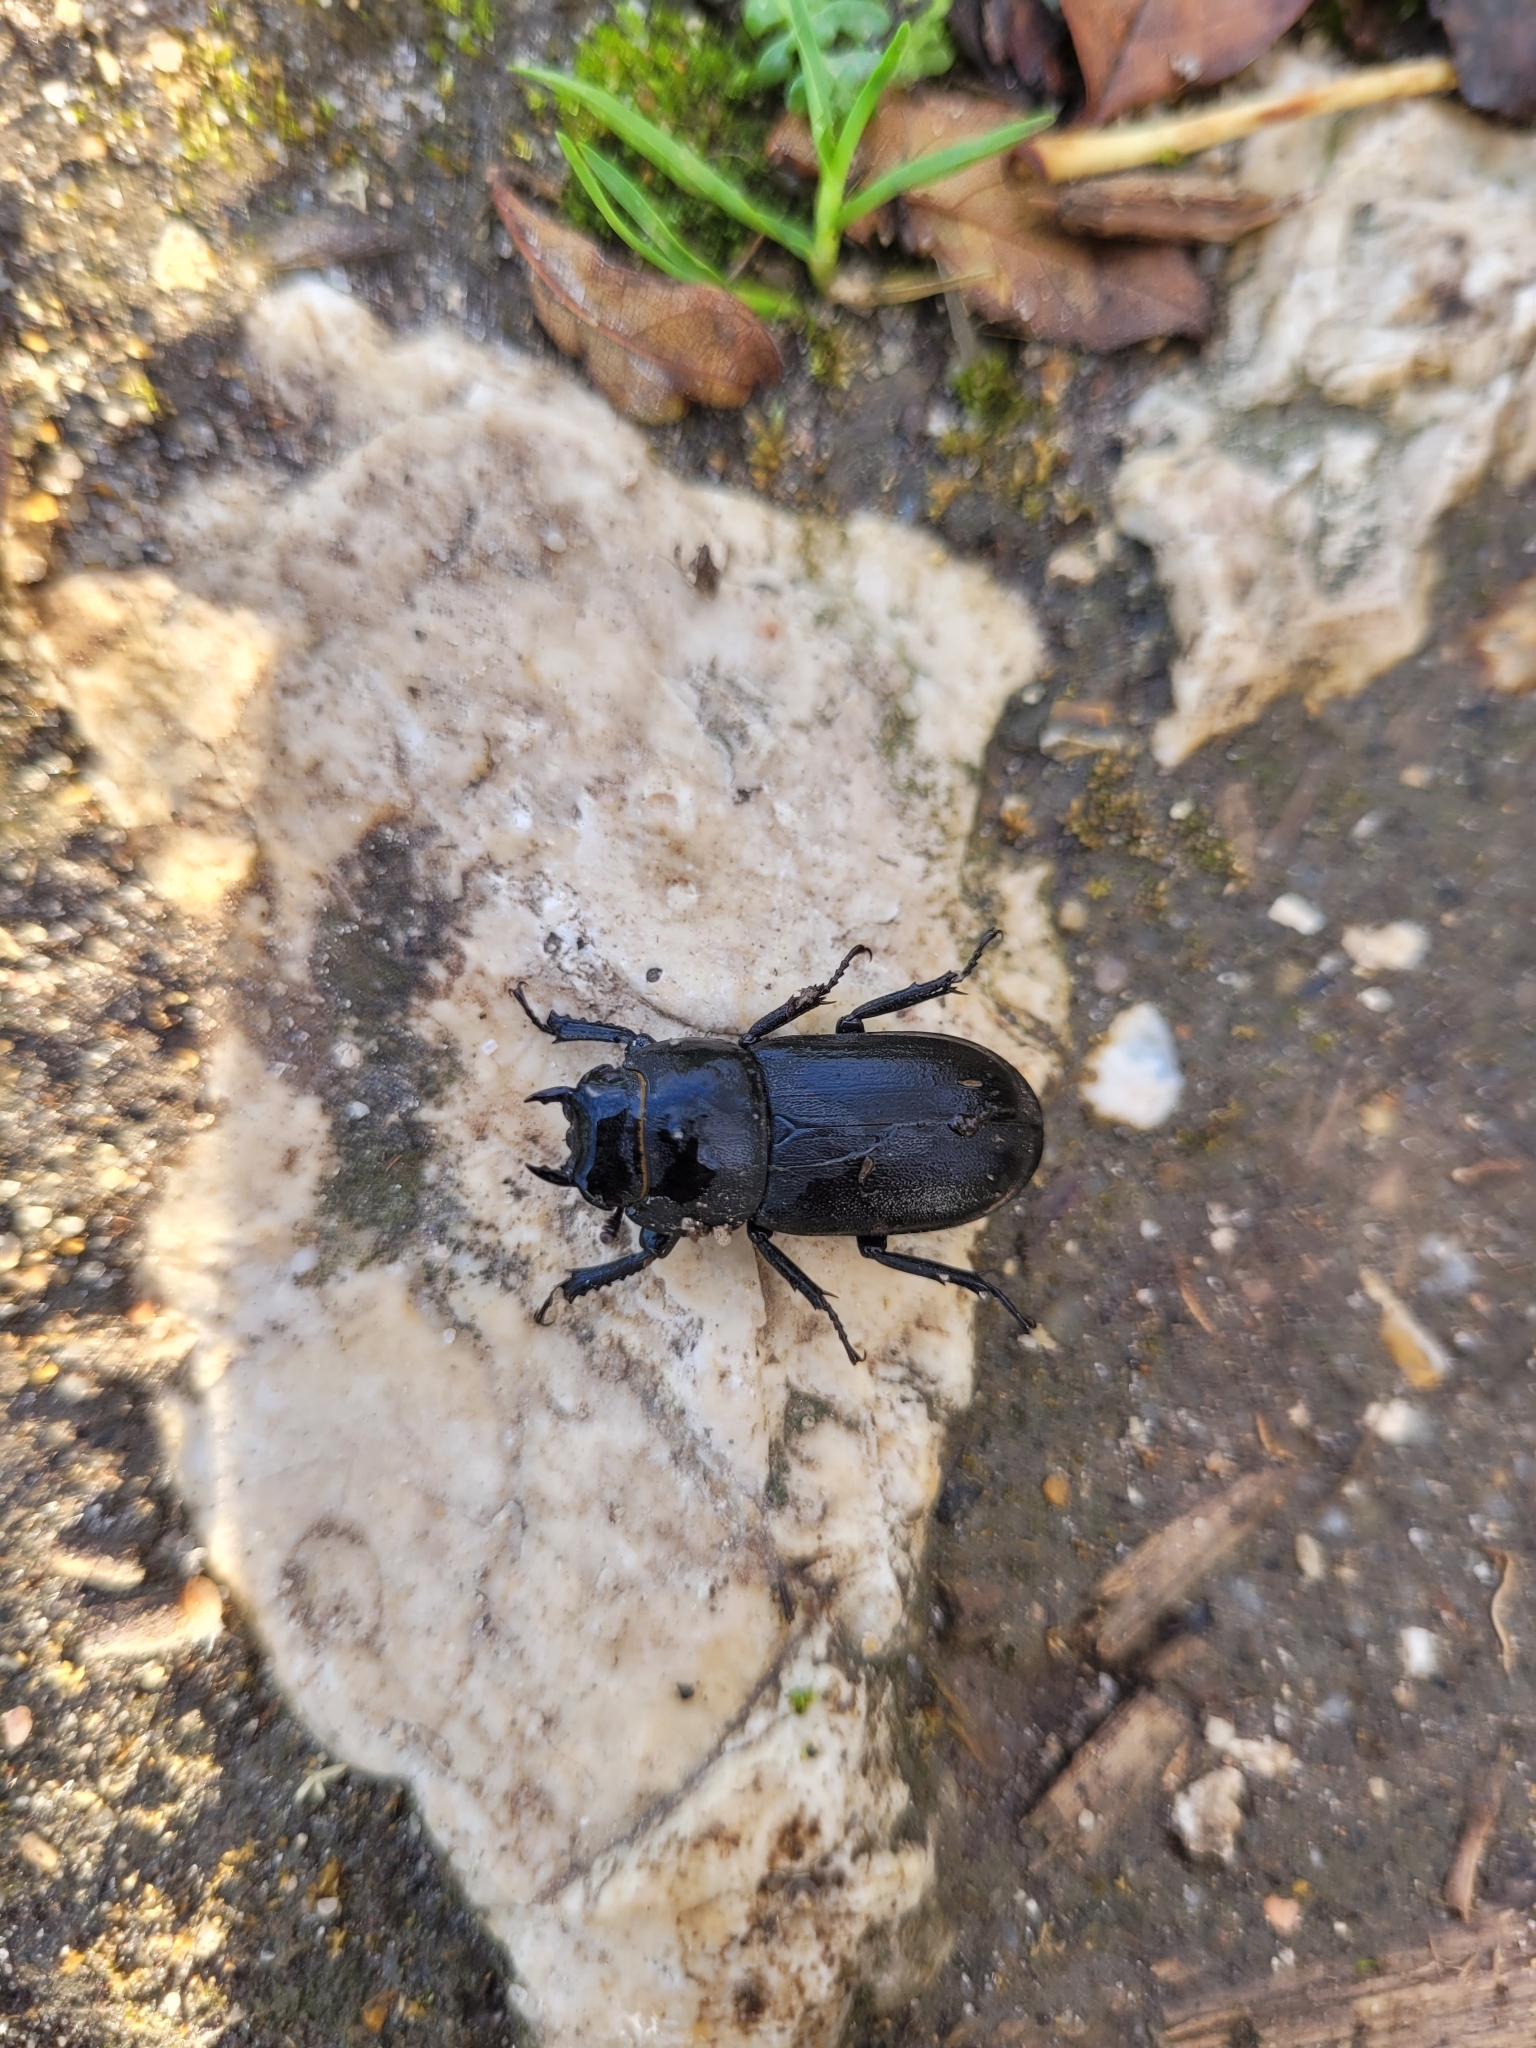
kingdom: Animalia
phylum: Arthropoda
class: Insecta
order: Coleoptera
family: Lucanidae
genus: Dorcus
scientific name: Dorcus parallelipipedus
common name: Lesser stag beetle
